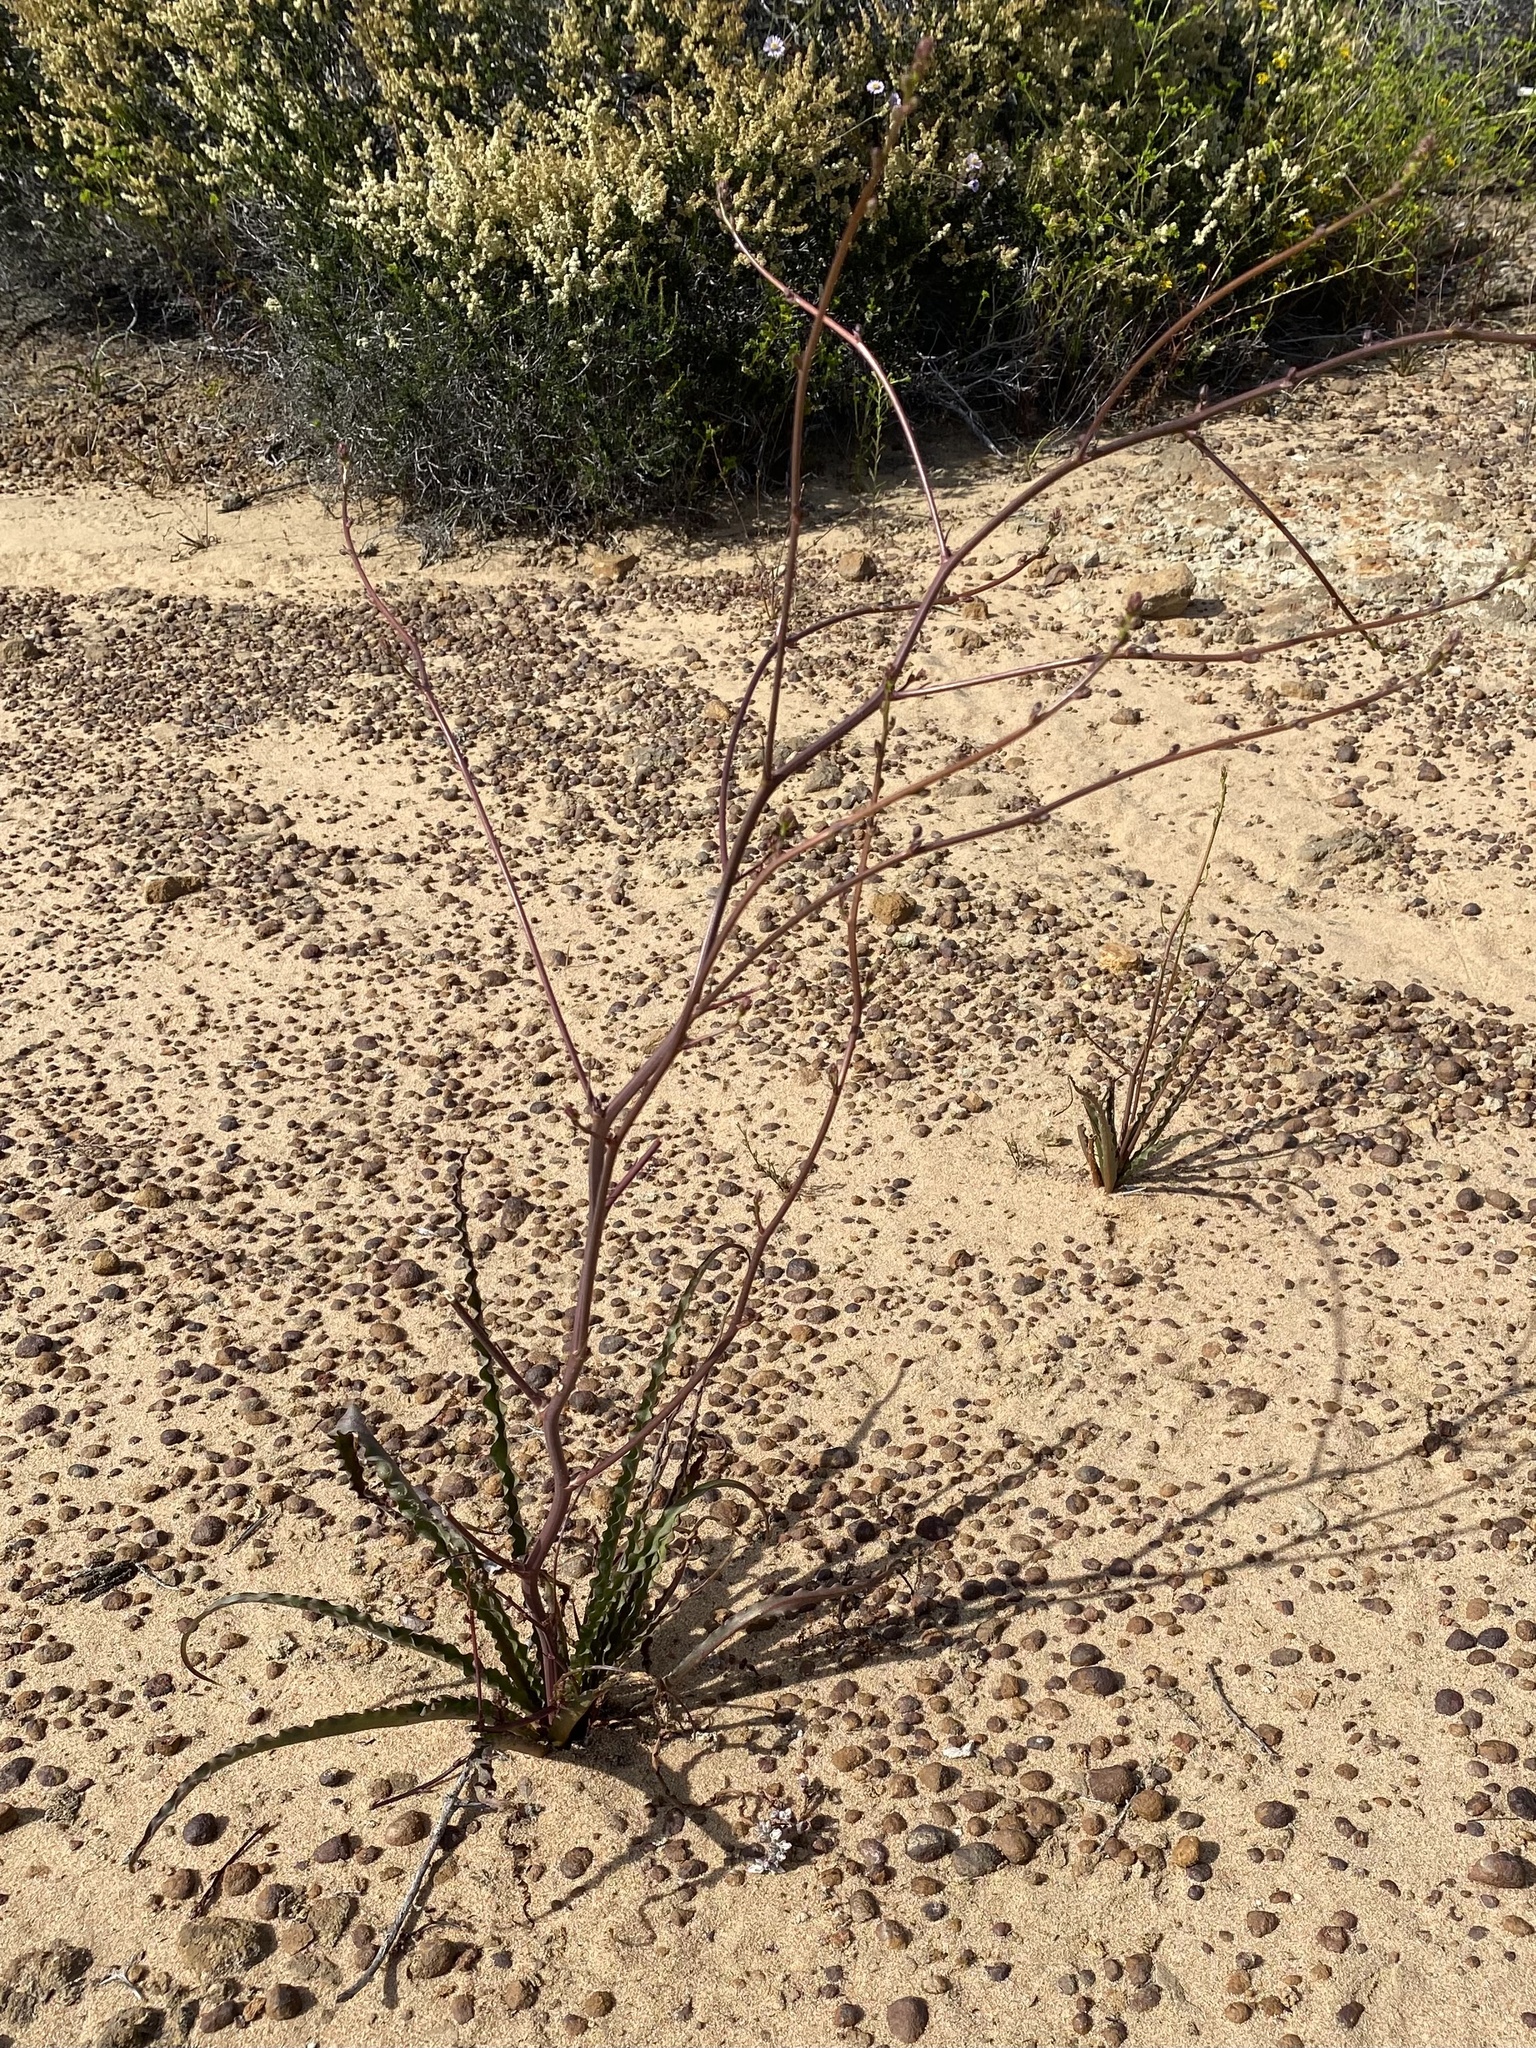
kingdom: Plantae
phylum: Tracheophyta
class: Liliopsida
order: Asparagales
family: Asparagaceae
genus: Hooveria
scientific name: Hooveria parviflora
